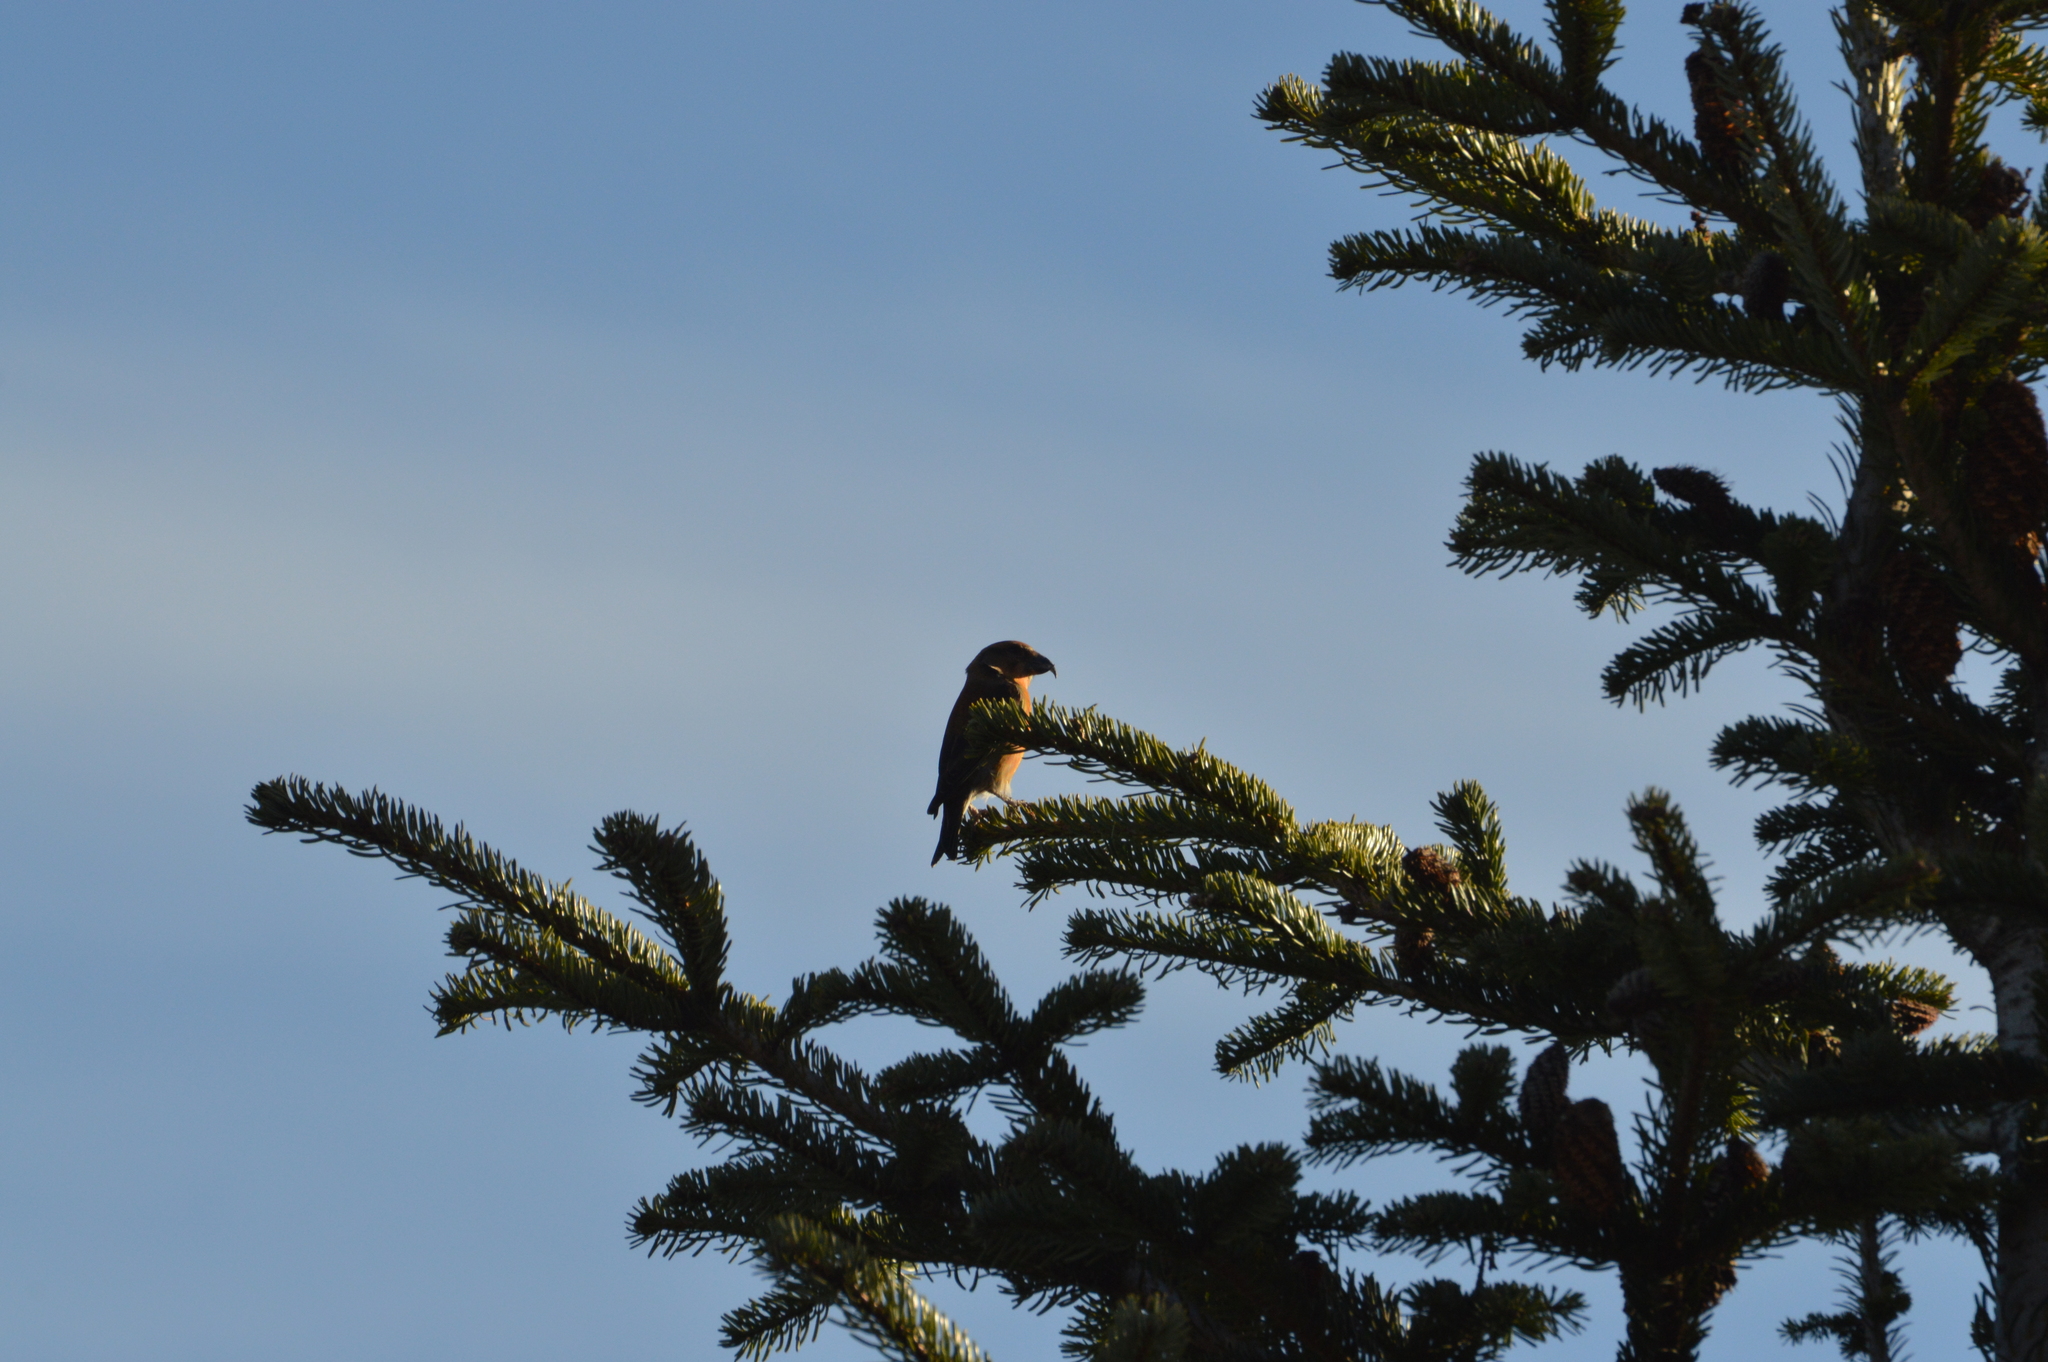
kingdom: Animalia
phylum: Chordata
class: Aves
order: Passeriformes
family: Fringillidae
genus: Loxia
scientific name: Loxia curvirostra
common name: Red crossbill
